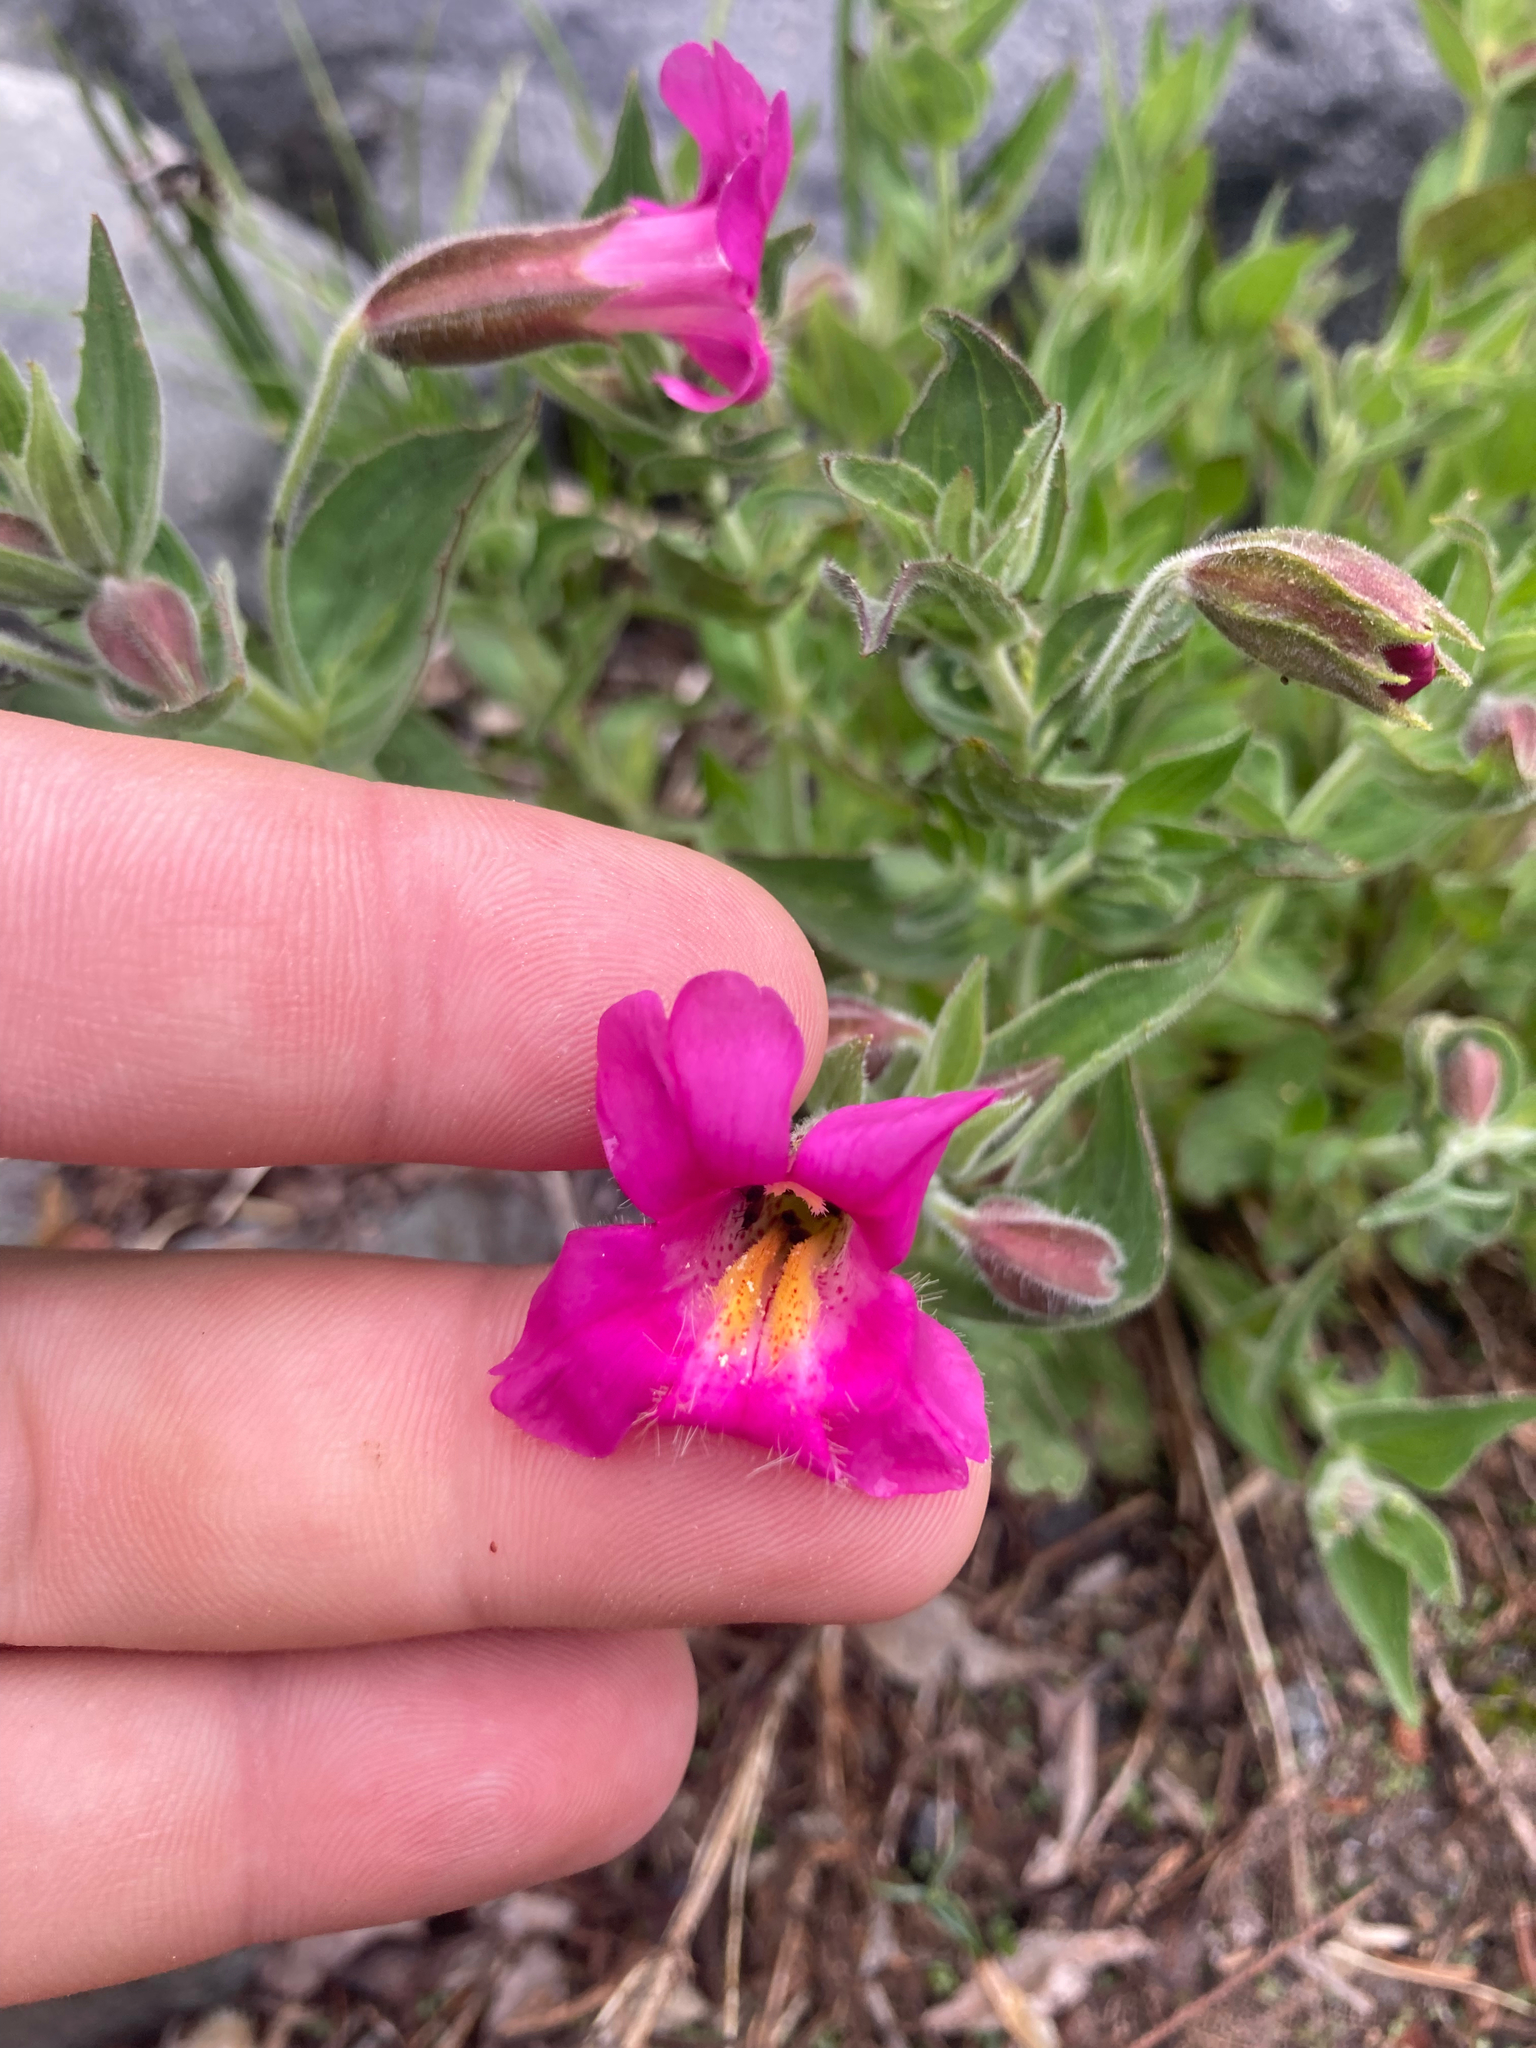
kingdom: Plantae
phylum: Tracheophyta
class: Magnoliopsida
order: Lamiales
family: Phrymaceae
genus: Erythranthe
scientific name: Erythranthe lewisii
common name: Lewis's monkey-flower
